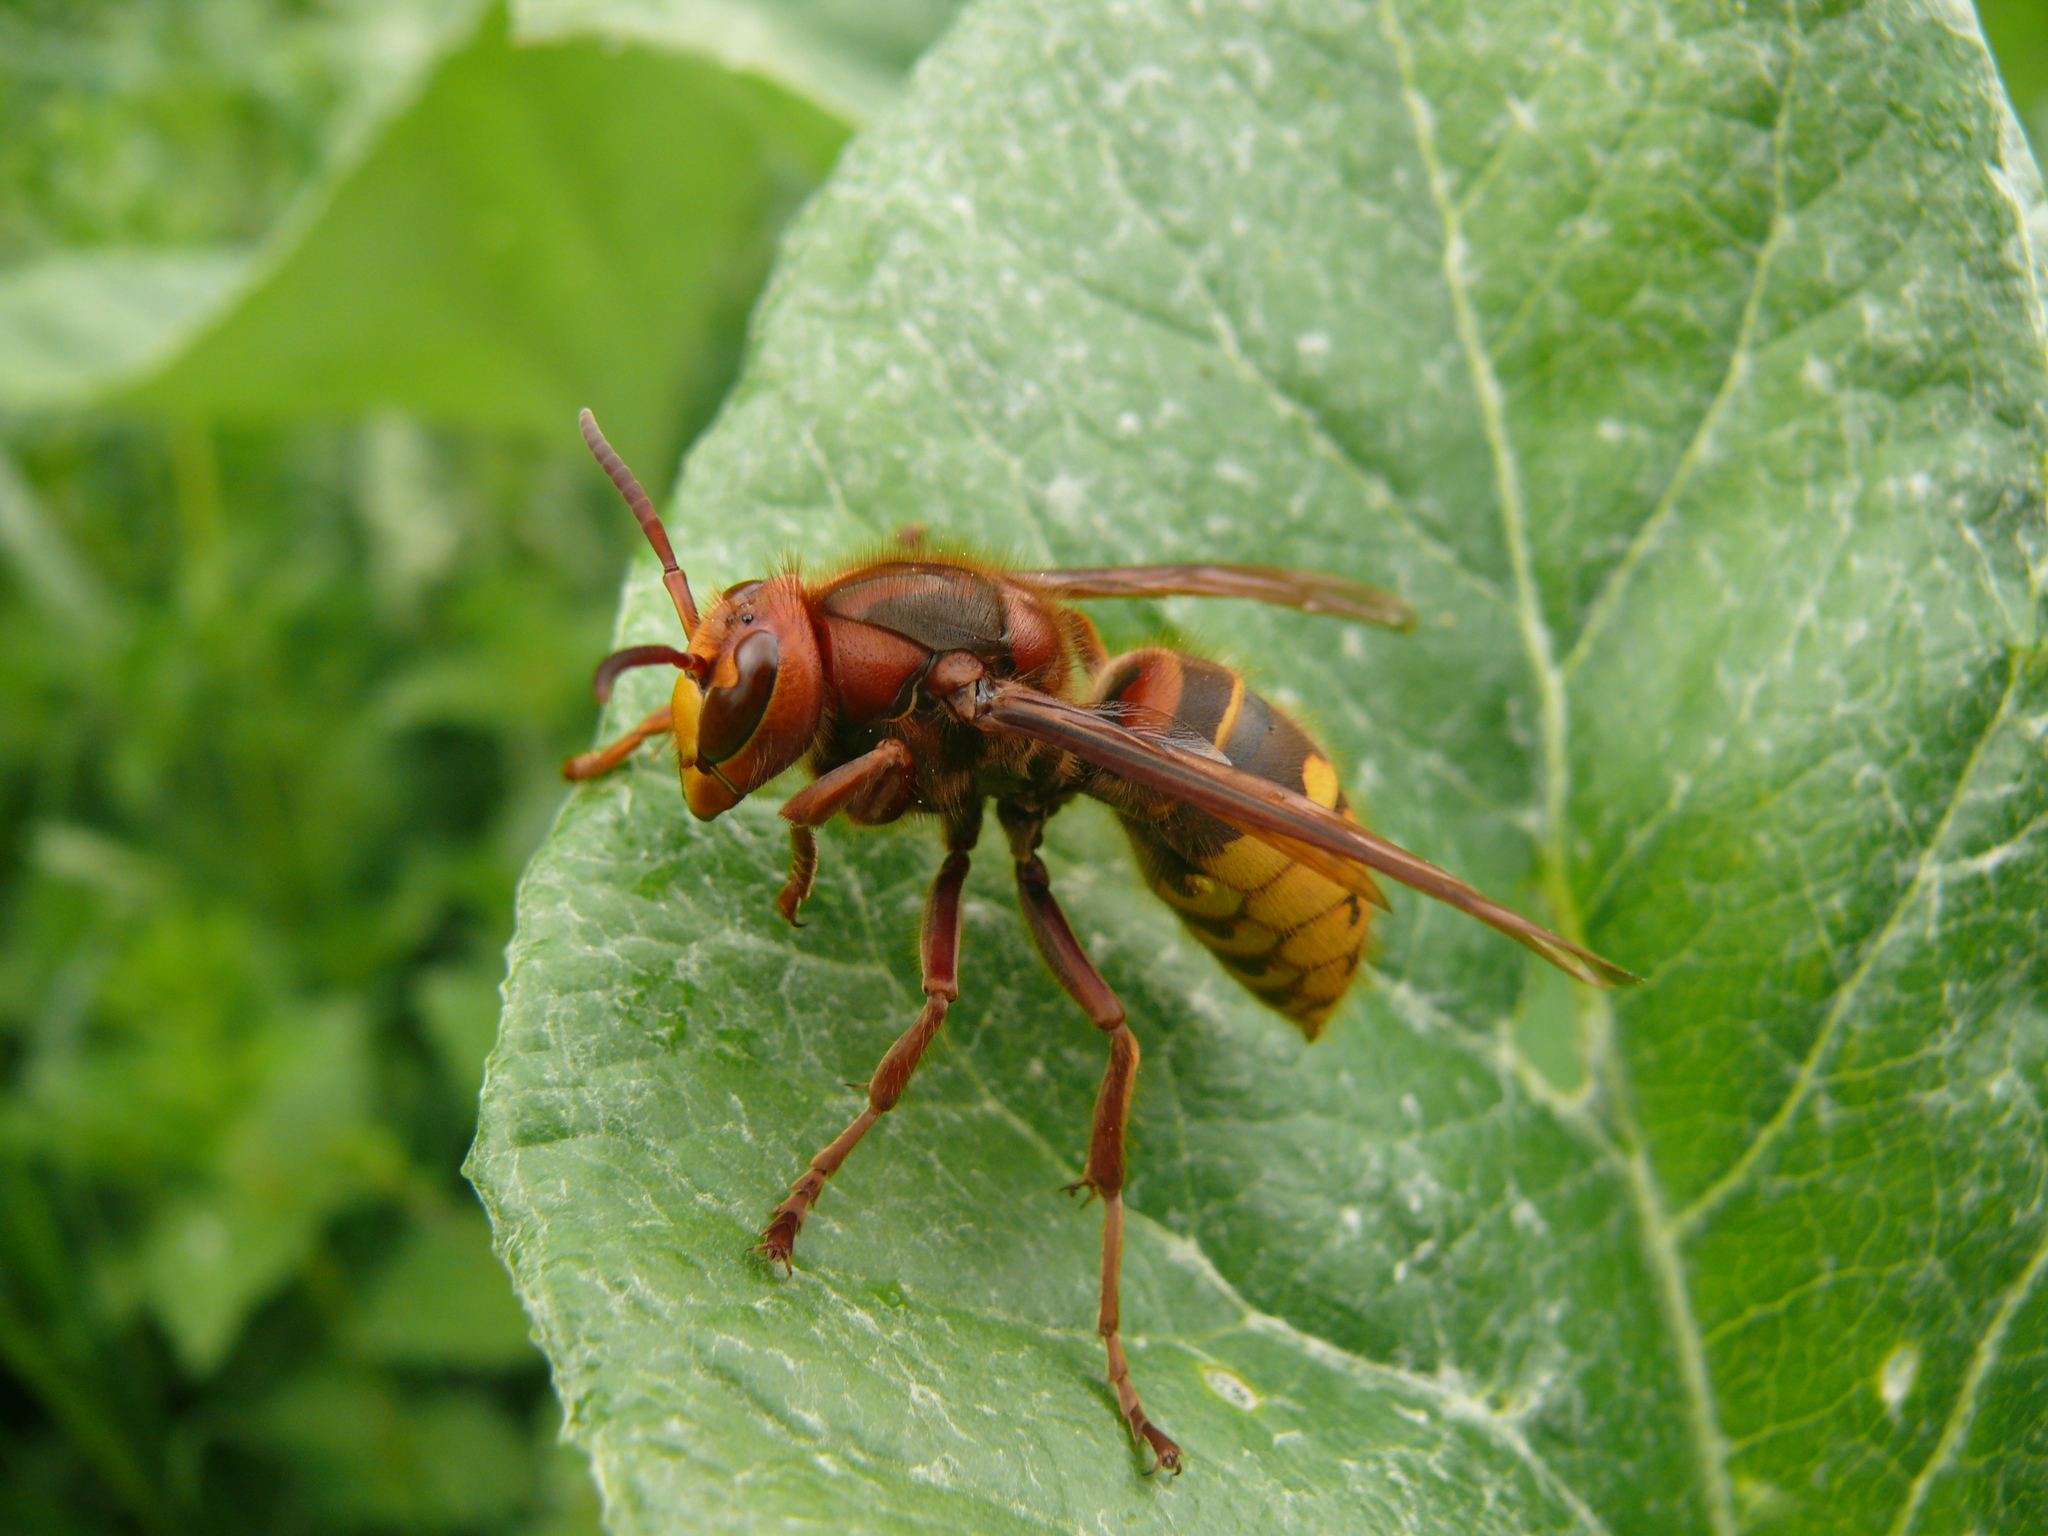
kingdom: Animalia
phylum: Arthropoda
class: Insecta
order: Hymenoptera
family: Vespidae
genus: Vespa
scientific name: Vespa crabro
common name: Hornet
